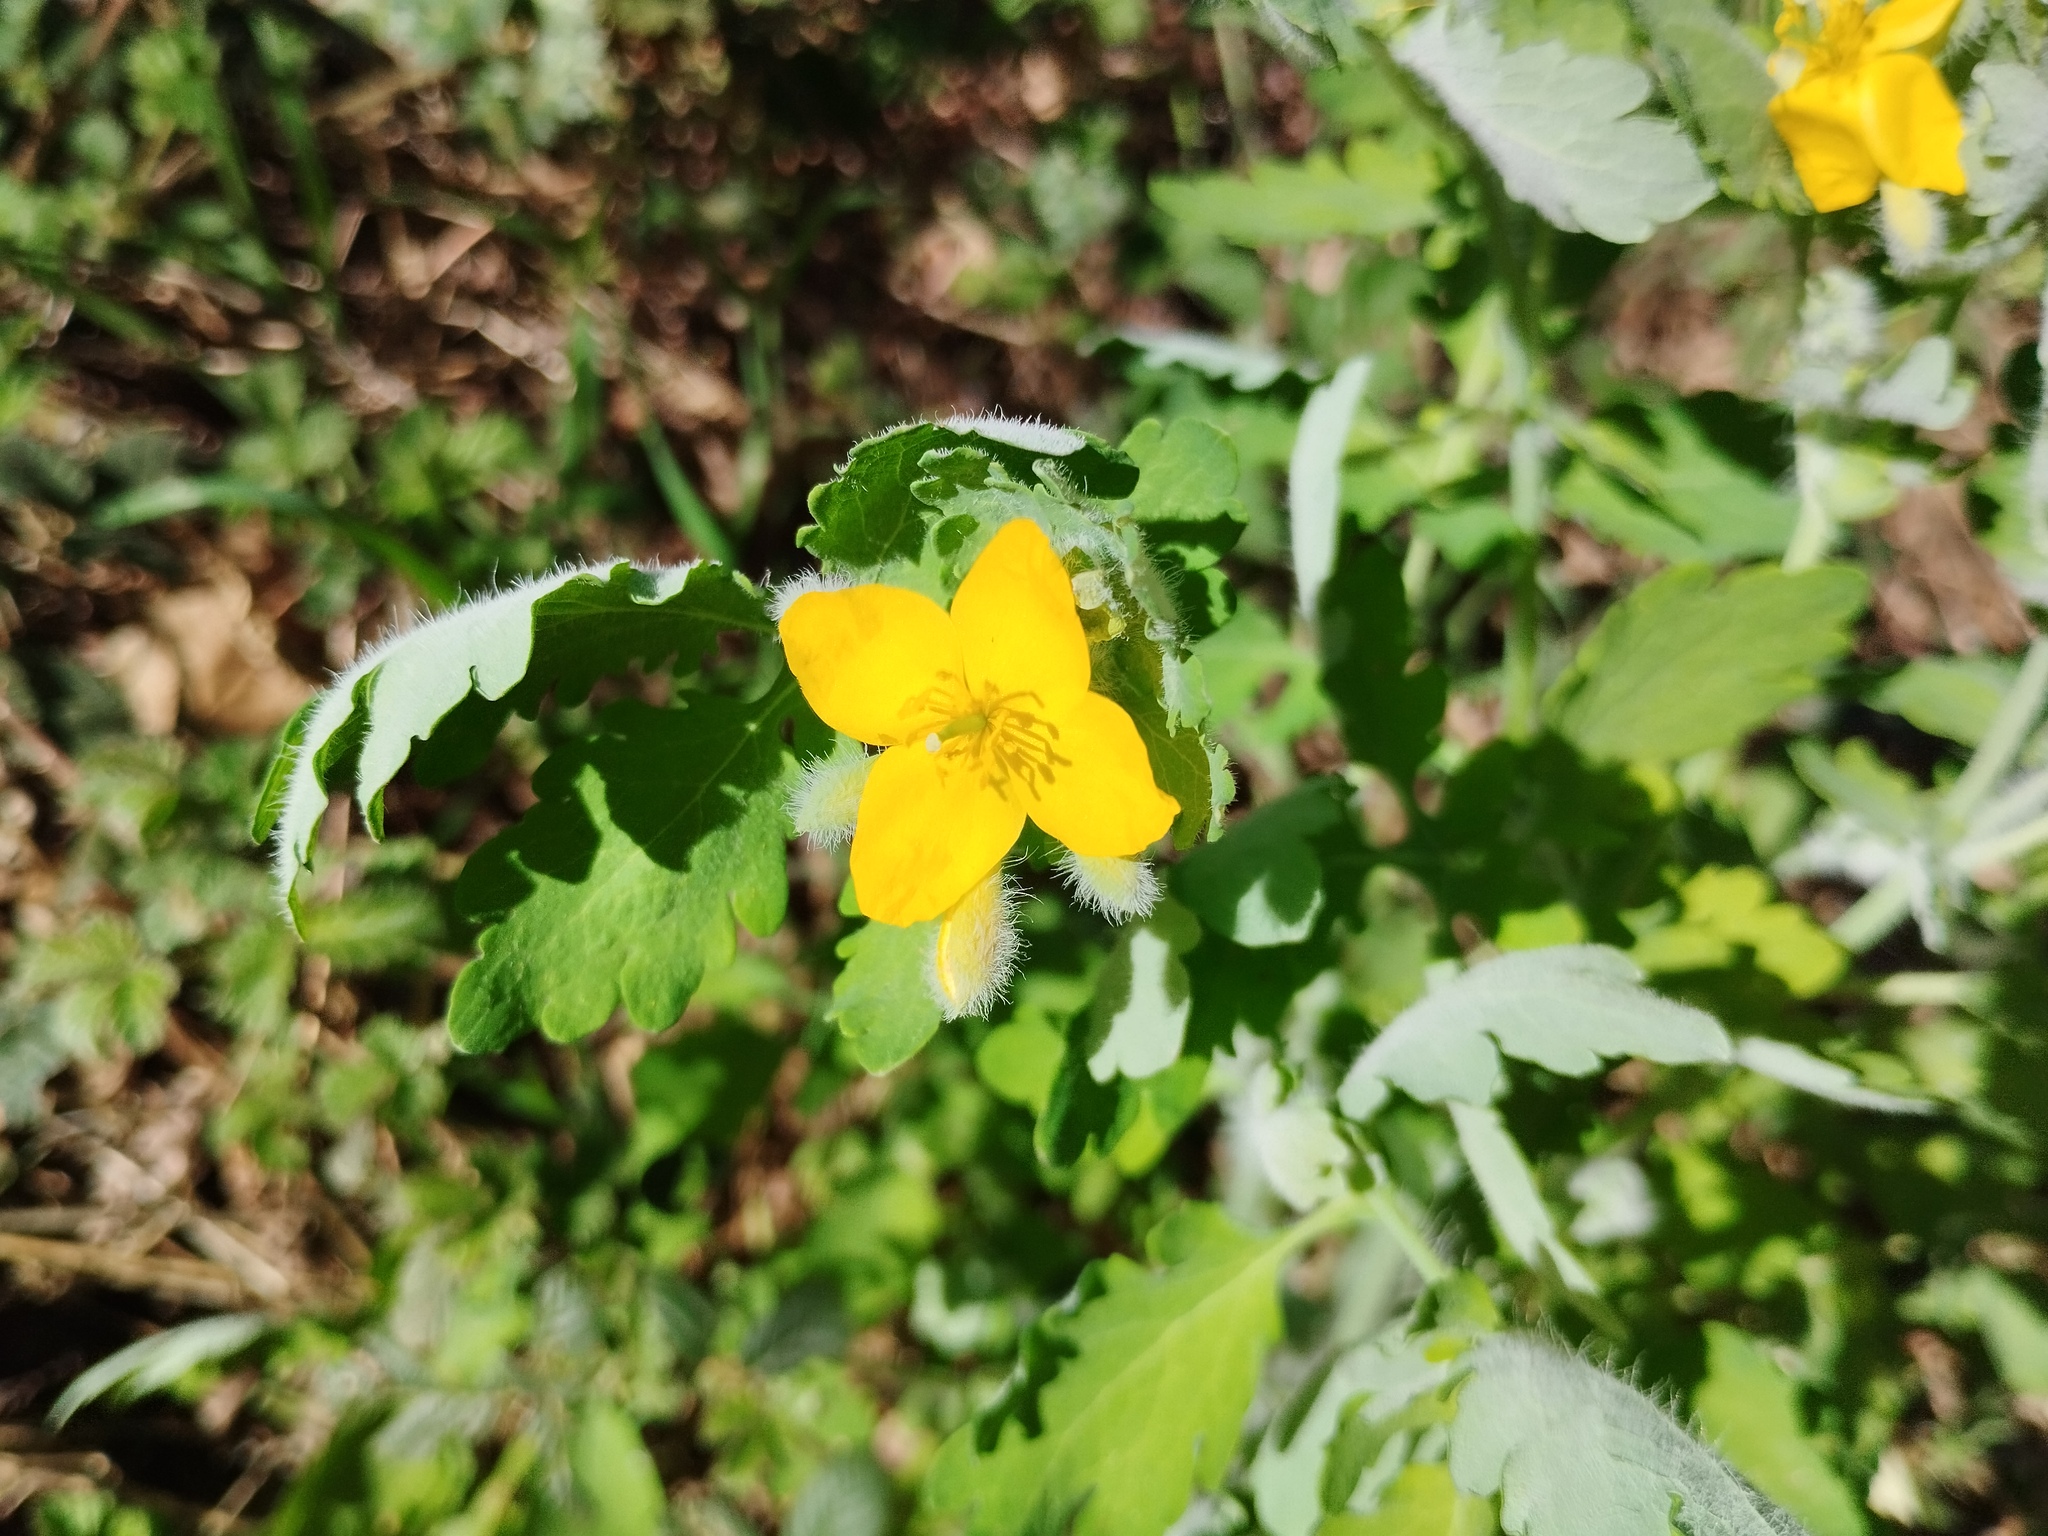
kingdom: Plantae
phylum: Tracheophyta
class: Magnoliopsida
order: Ranunculales
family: Papaveraceae
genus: Chelidonium
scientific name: Chelidonium majus
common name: Greater celandine
